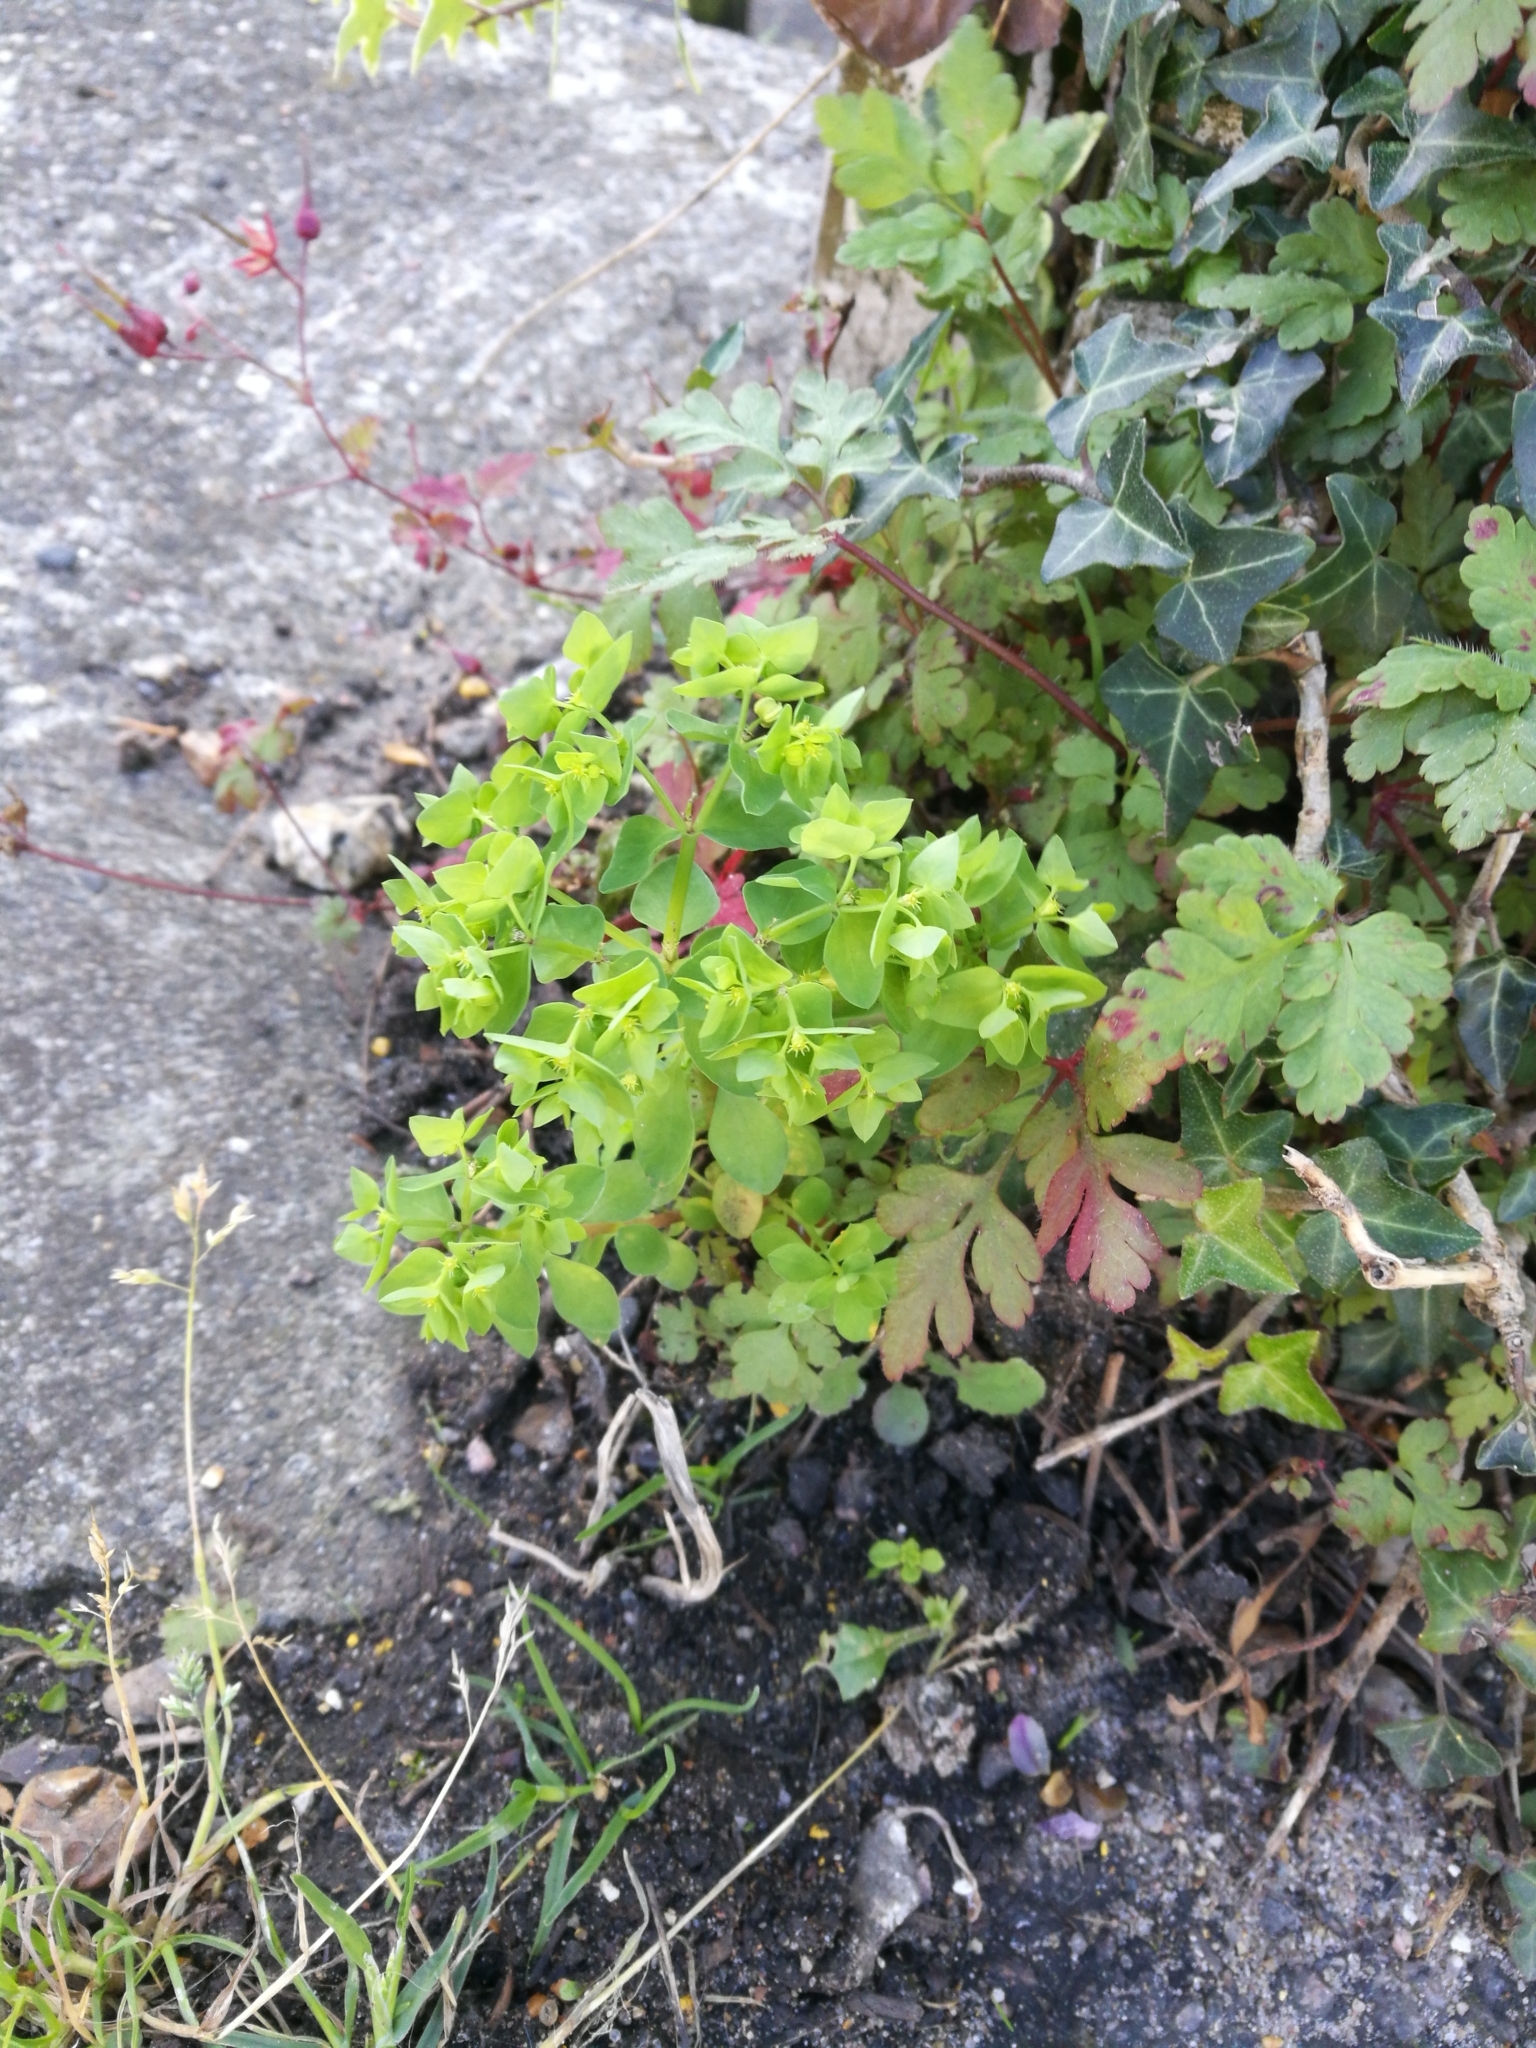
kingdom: Plantae
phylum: Tracheophyta
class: Magnoliopsida
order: Malpighiales
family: Euphorbiaceae
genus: Euphorbia
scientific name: Euphorbia peplus
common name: Petty spurge
